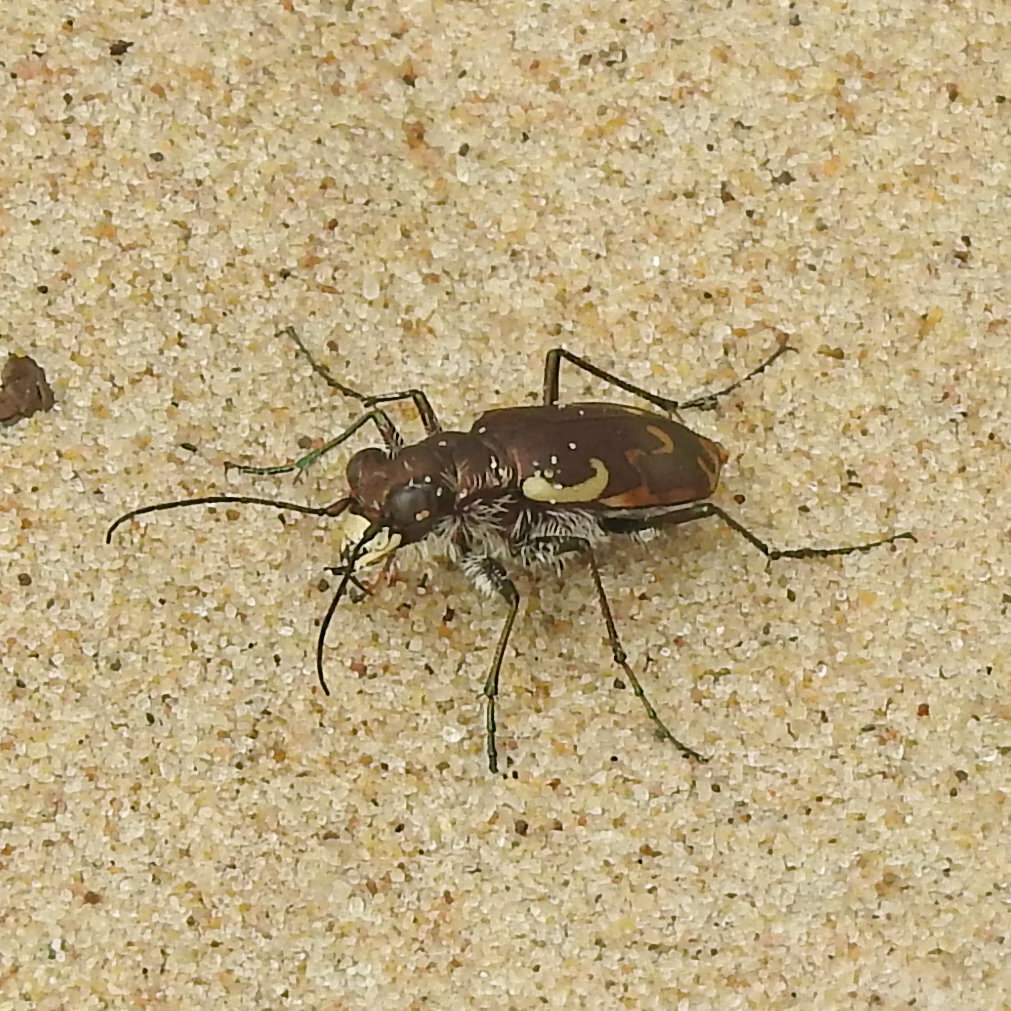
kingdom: Animalia
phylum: Arthropoda
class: Insecta
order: Coleoptera
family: Carabidae
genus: Cicindela
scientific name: Cicindela repanda
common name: Bronzed tiger beetle
